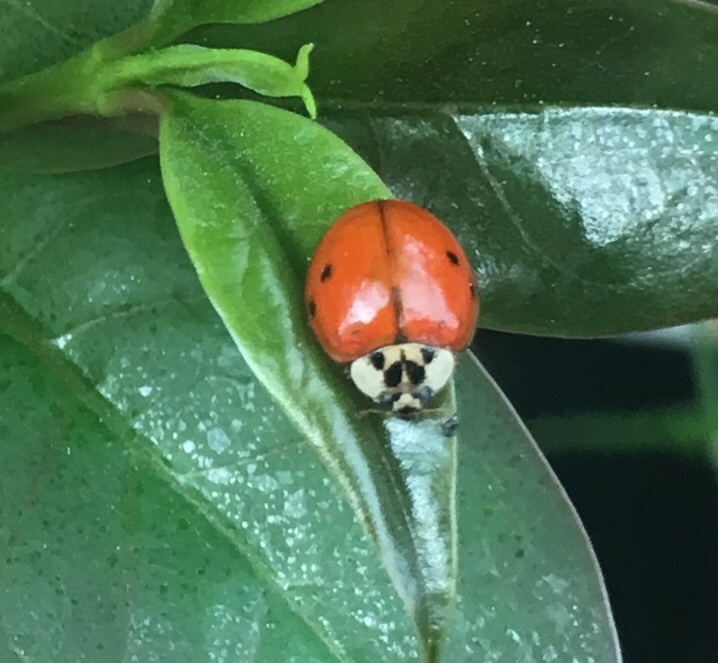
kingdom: Animalia
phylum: Arthropoda
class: Insecta
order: Coleoptera
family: Coccinellidae
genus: Harmonia
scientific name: Harmonia axyridis
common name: Harlequin ladybird
